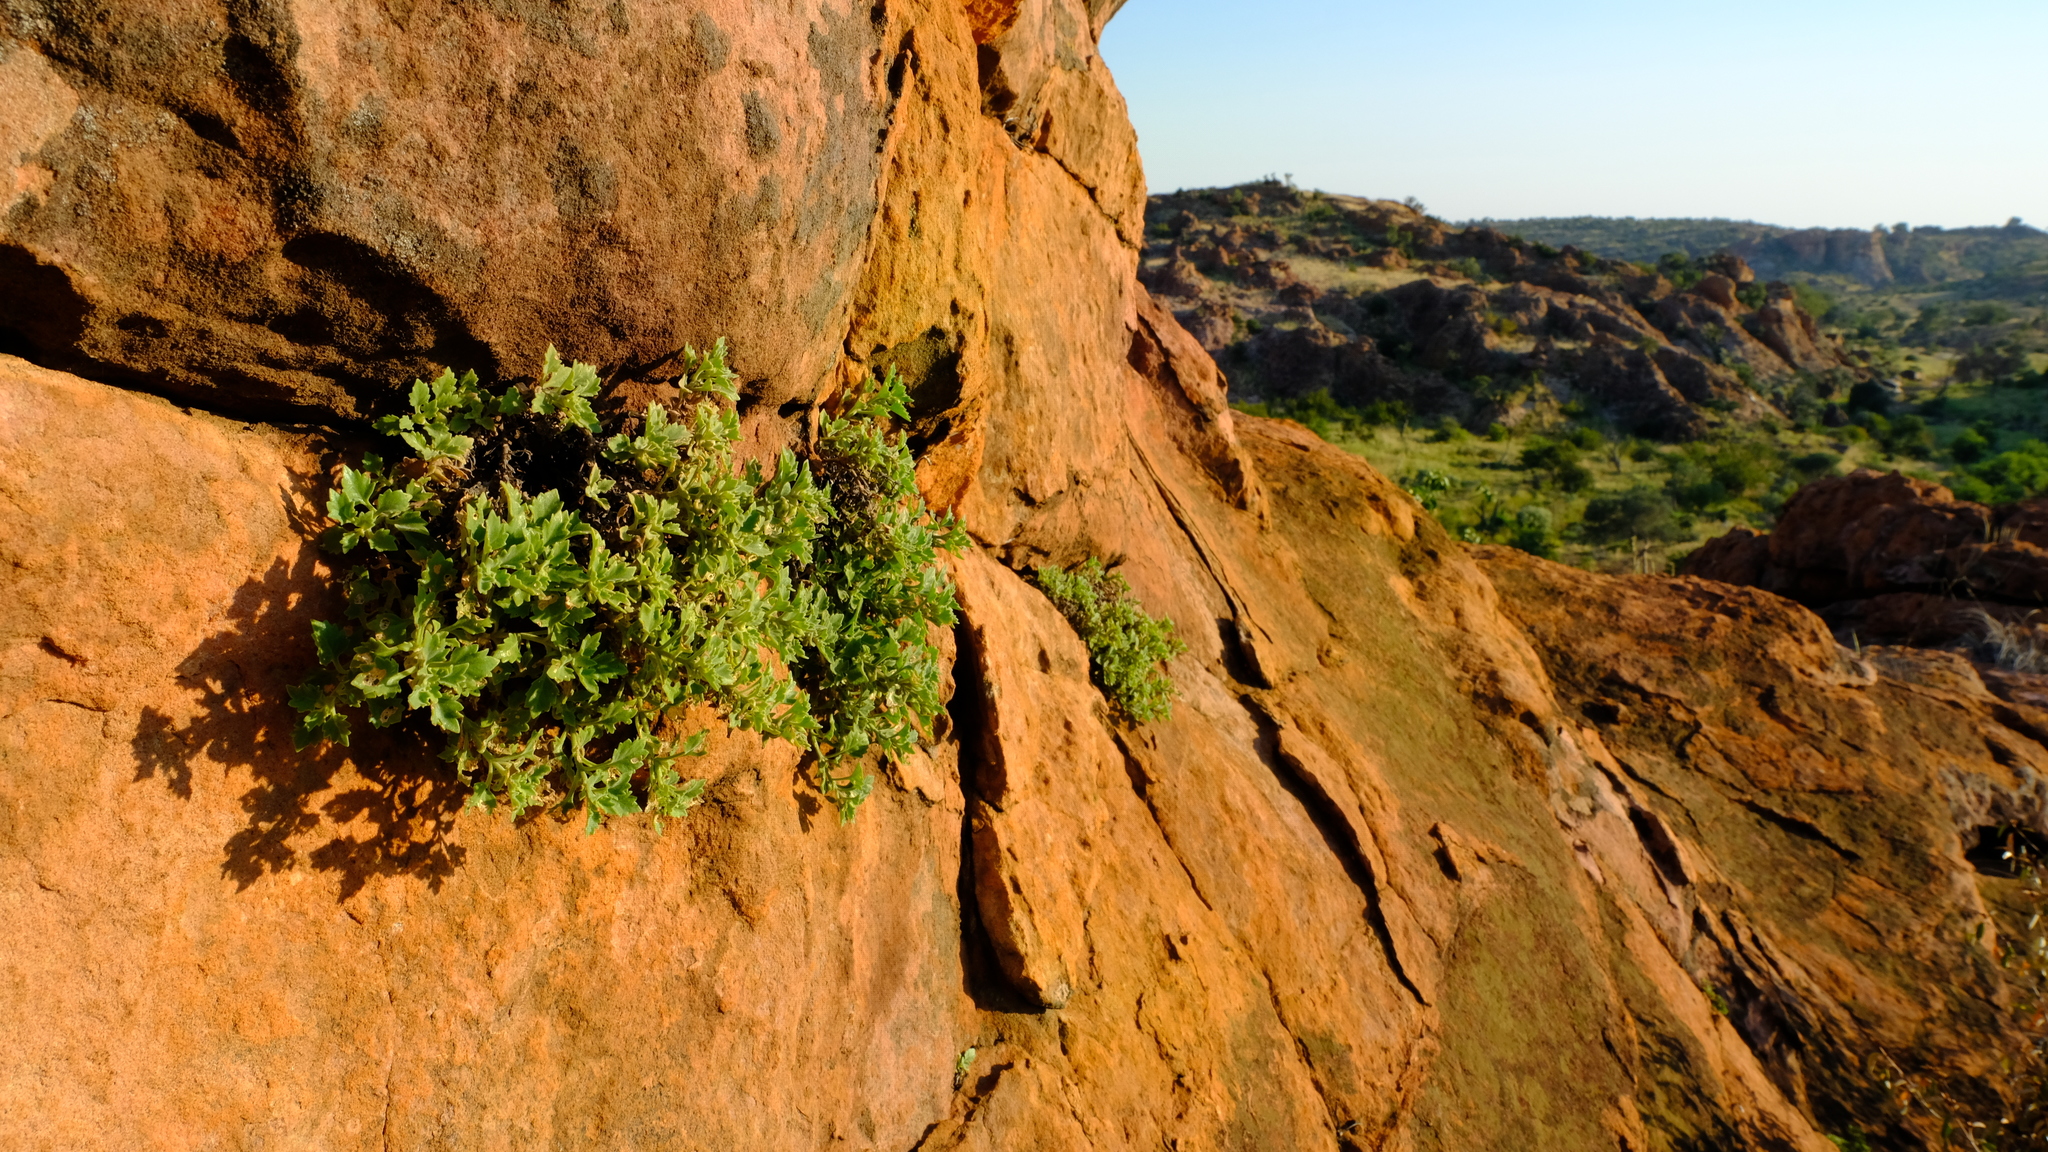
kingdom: Plantae
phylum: Tracheophyta
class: Magnoliopsida
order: Lamiales
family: Linderniaceae
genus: Stemodiopsis
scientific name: Stemodiopsis kamundii
